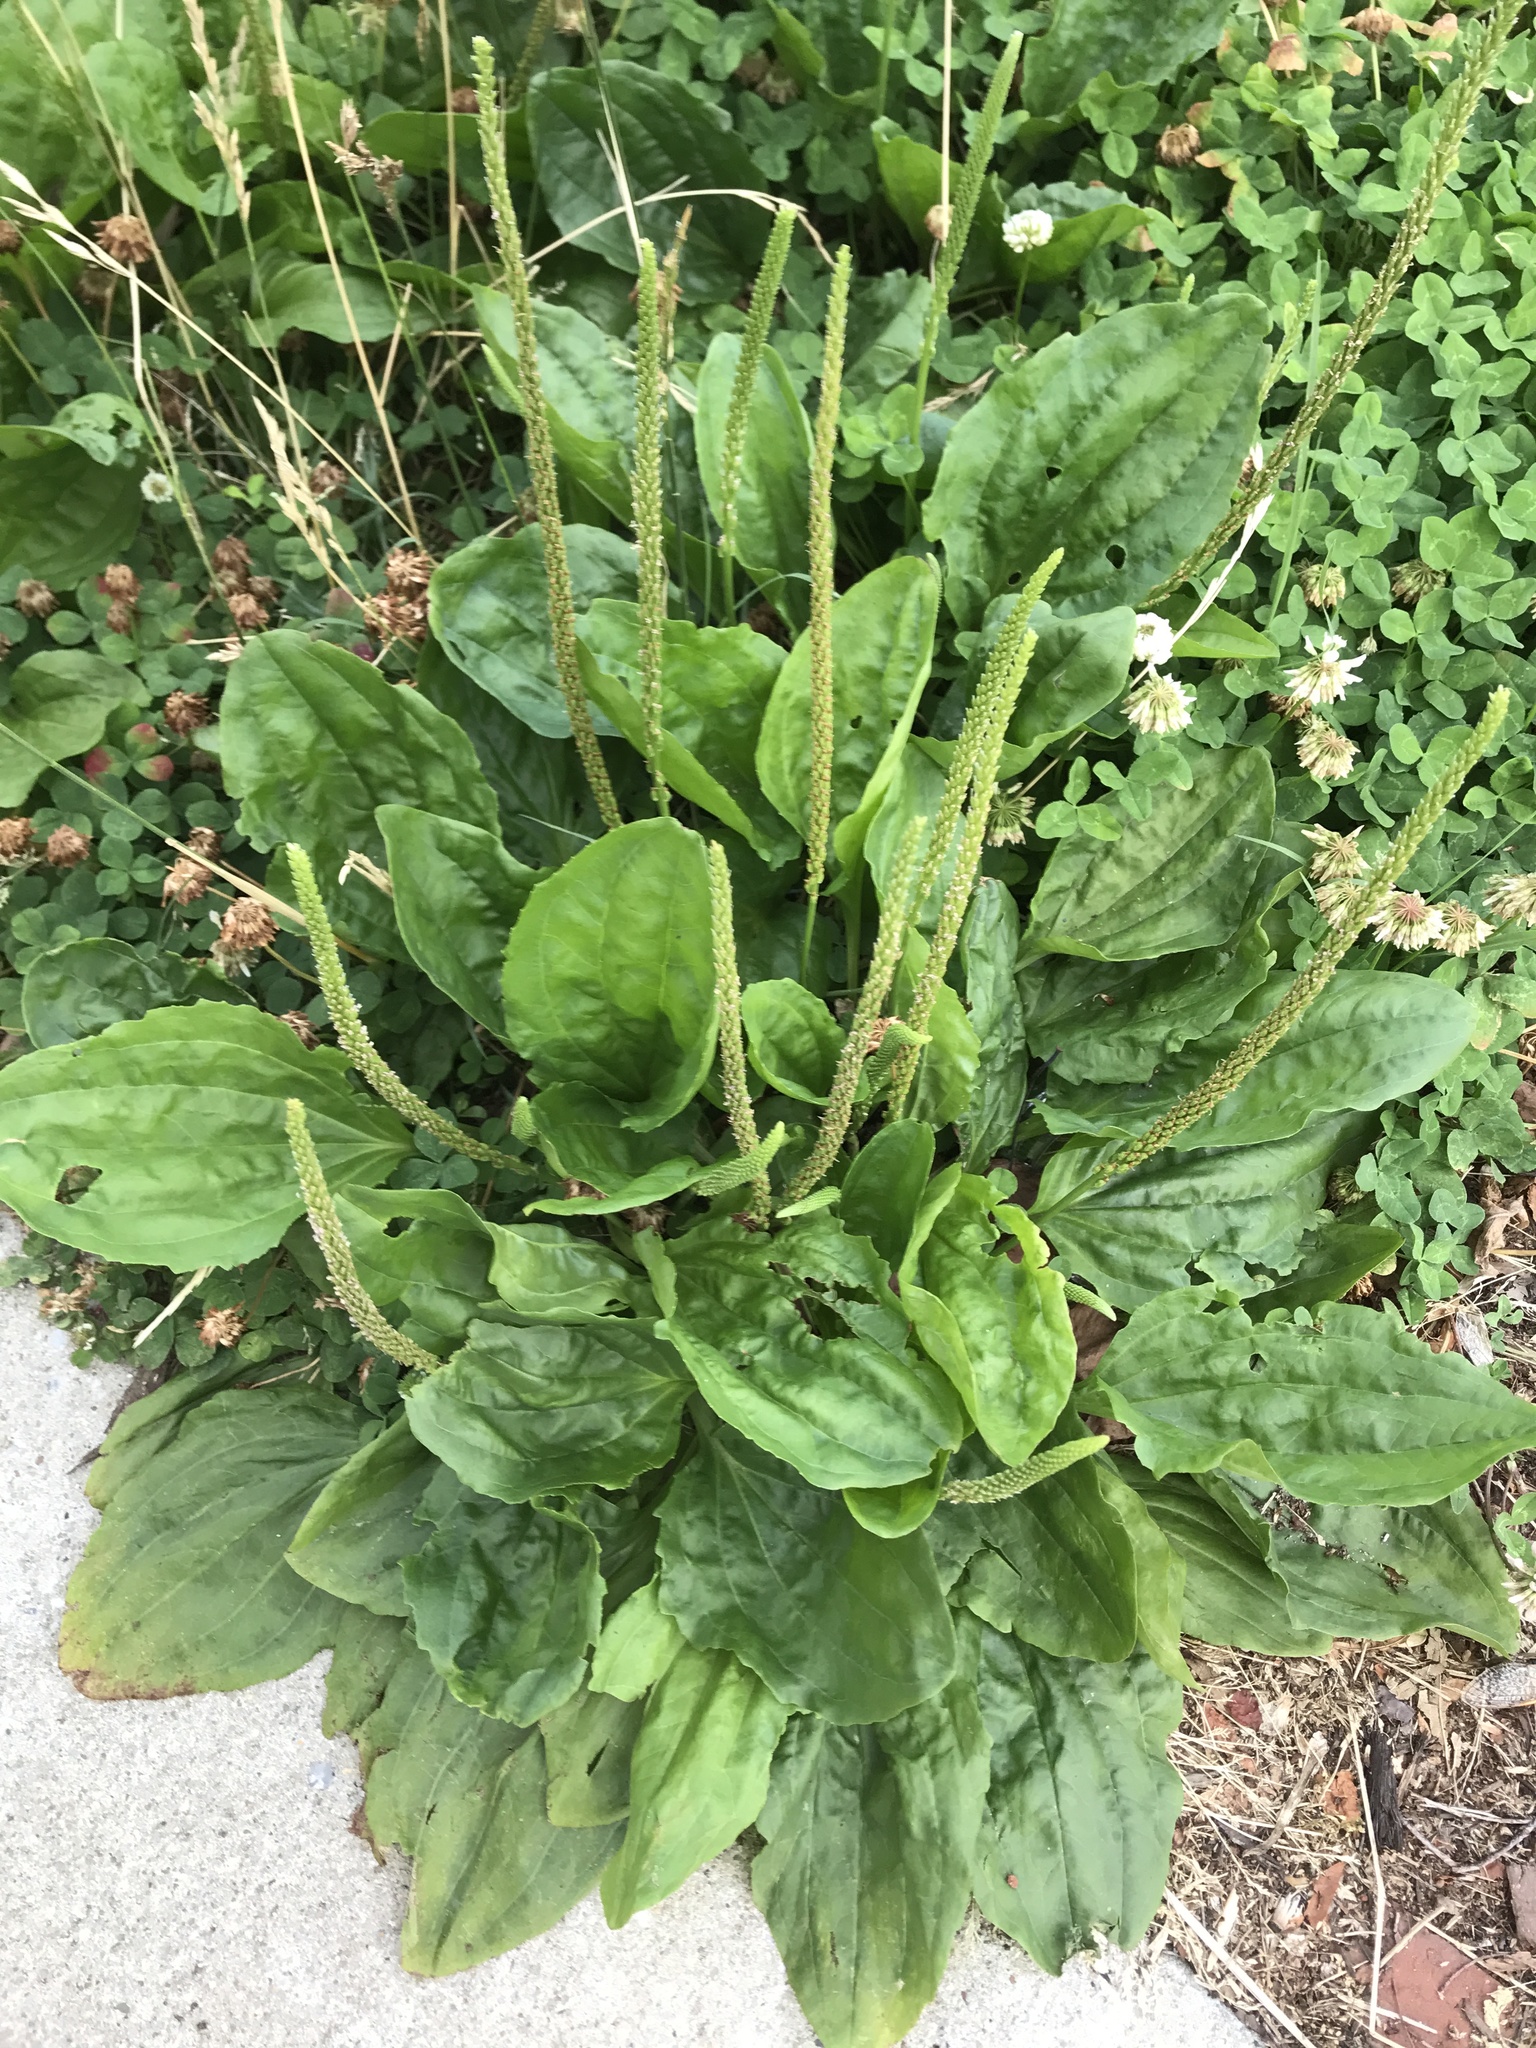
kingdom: Plantae
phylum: Tracheophyta
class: Magnoliopsida
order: Lamiales
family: Plantaginaceae
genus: Plantago
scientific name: Plantago major
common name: Common plantain
